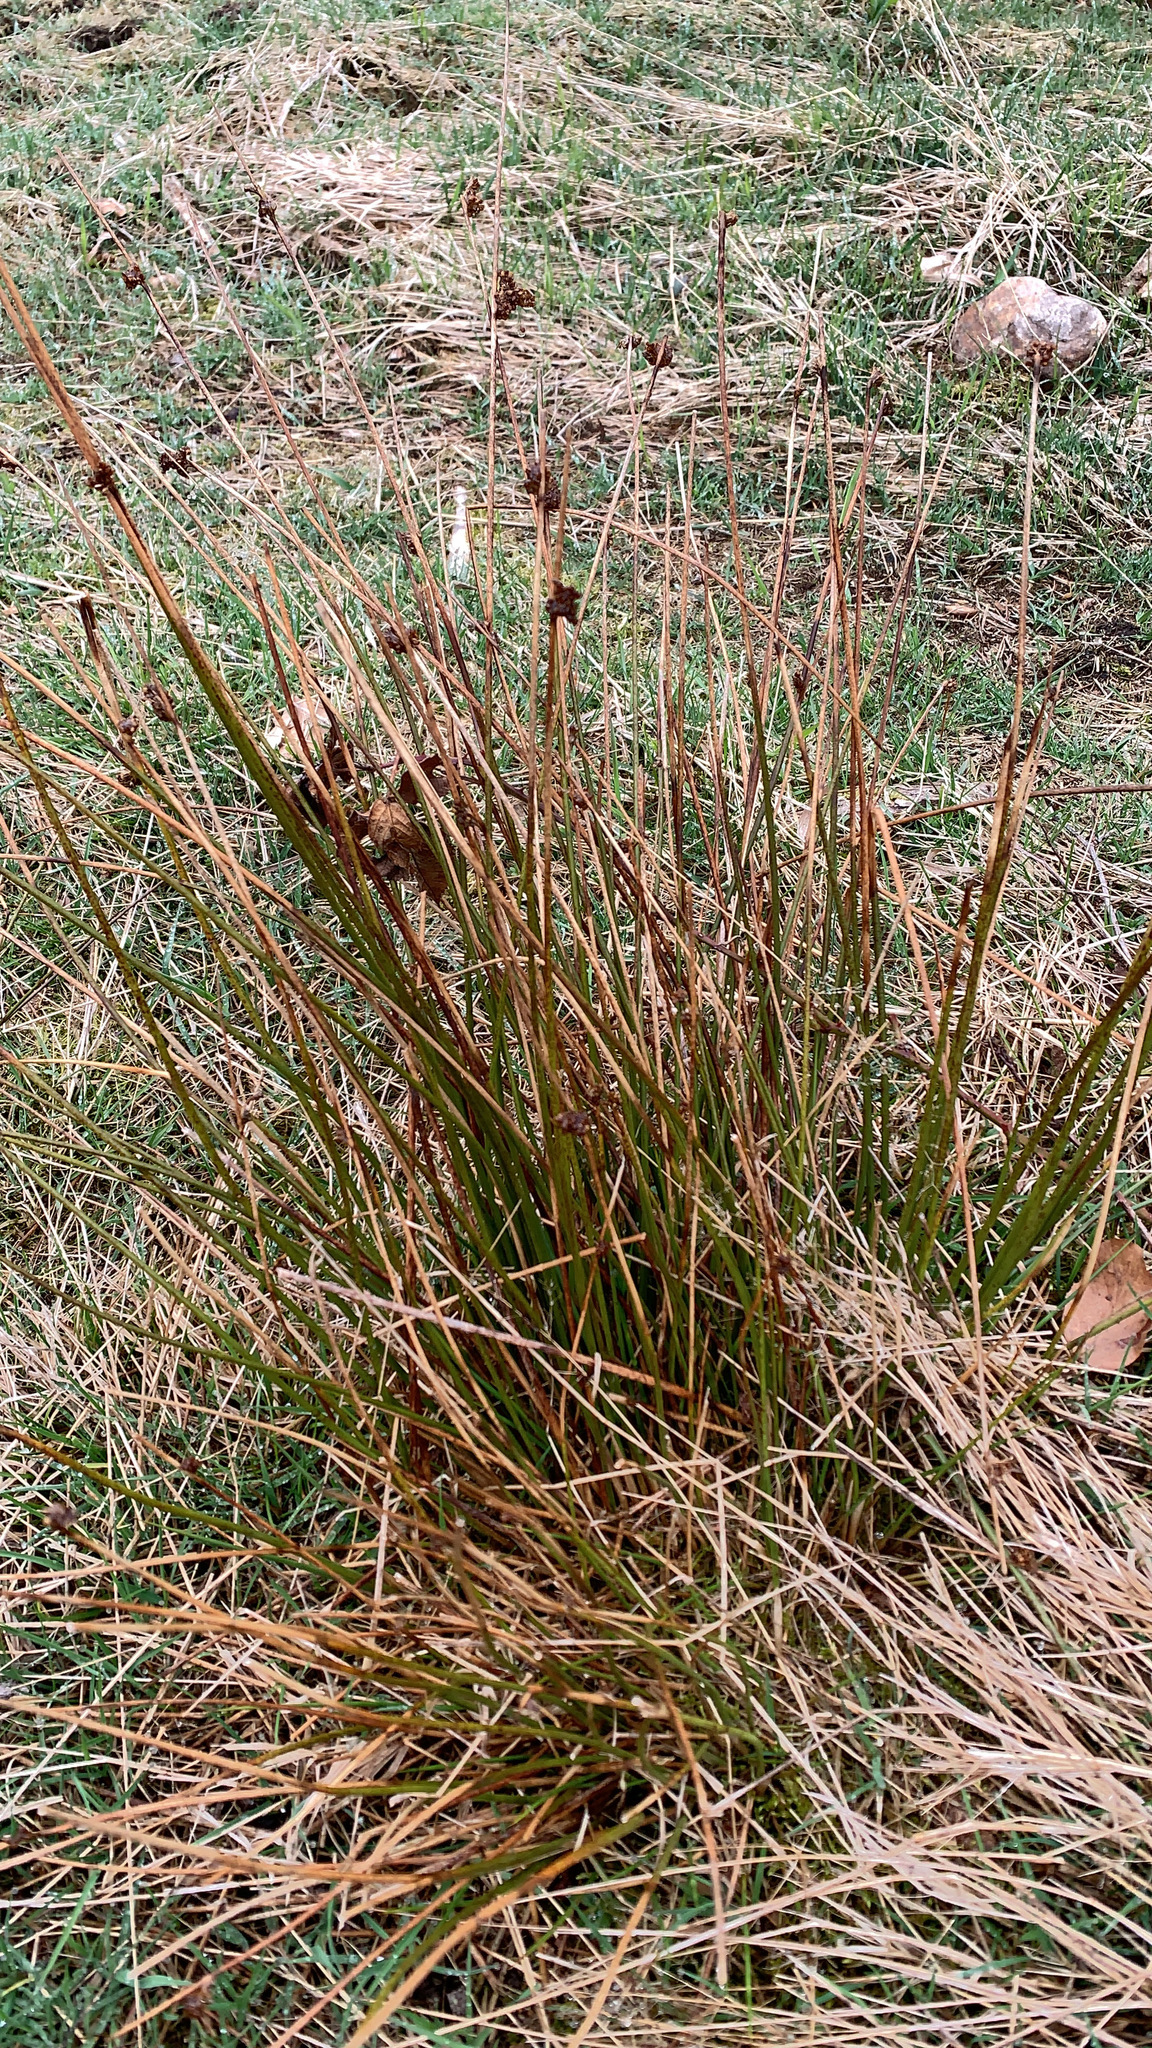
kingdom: Plantae
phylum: Tracheophyta
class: Liliopsida
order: Poales
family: Juncaceae
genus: Juncus
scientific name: Juncus effusus
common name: Soft rush
